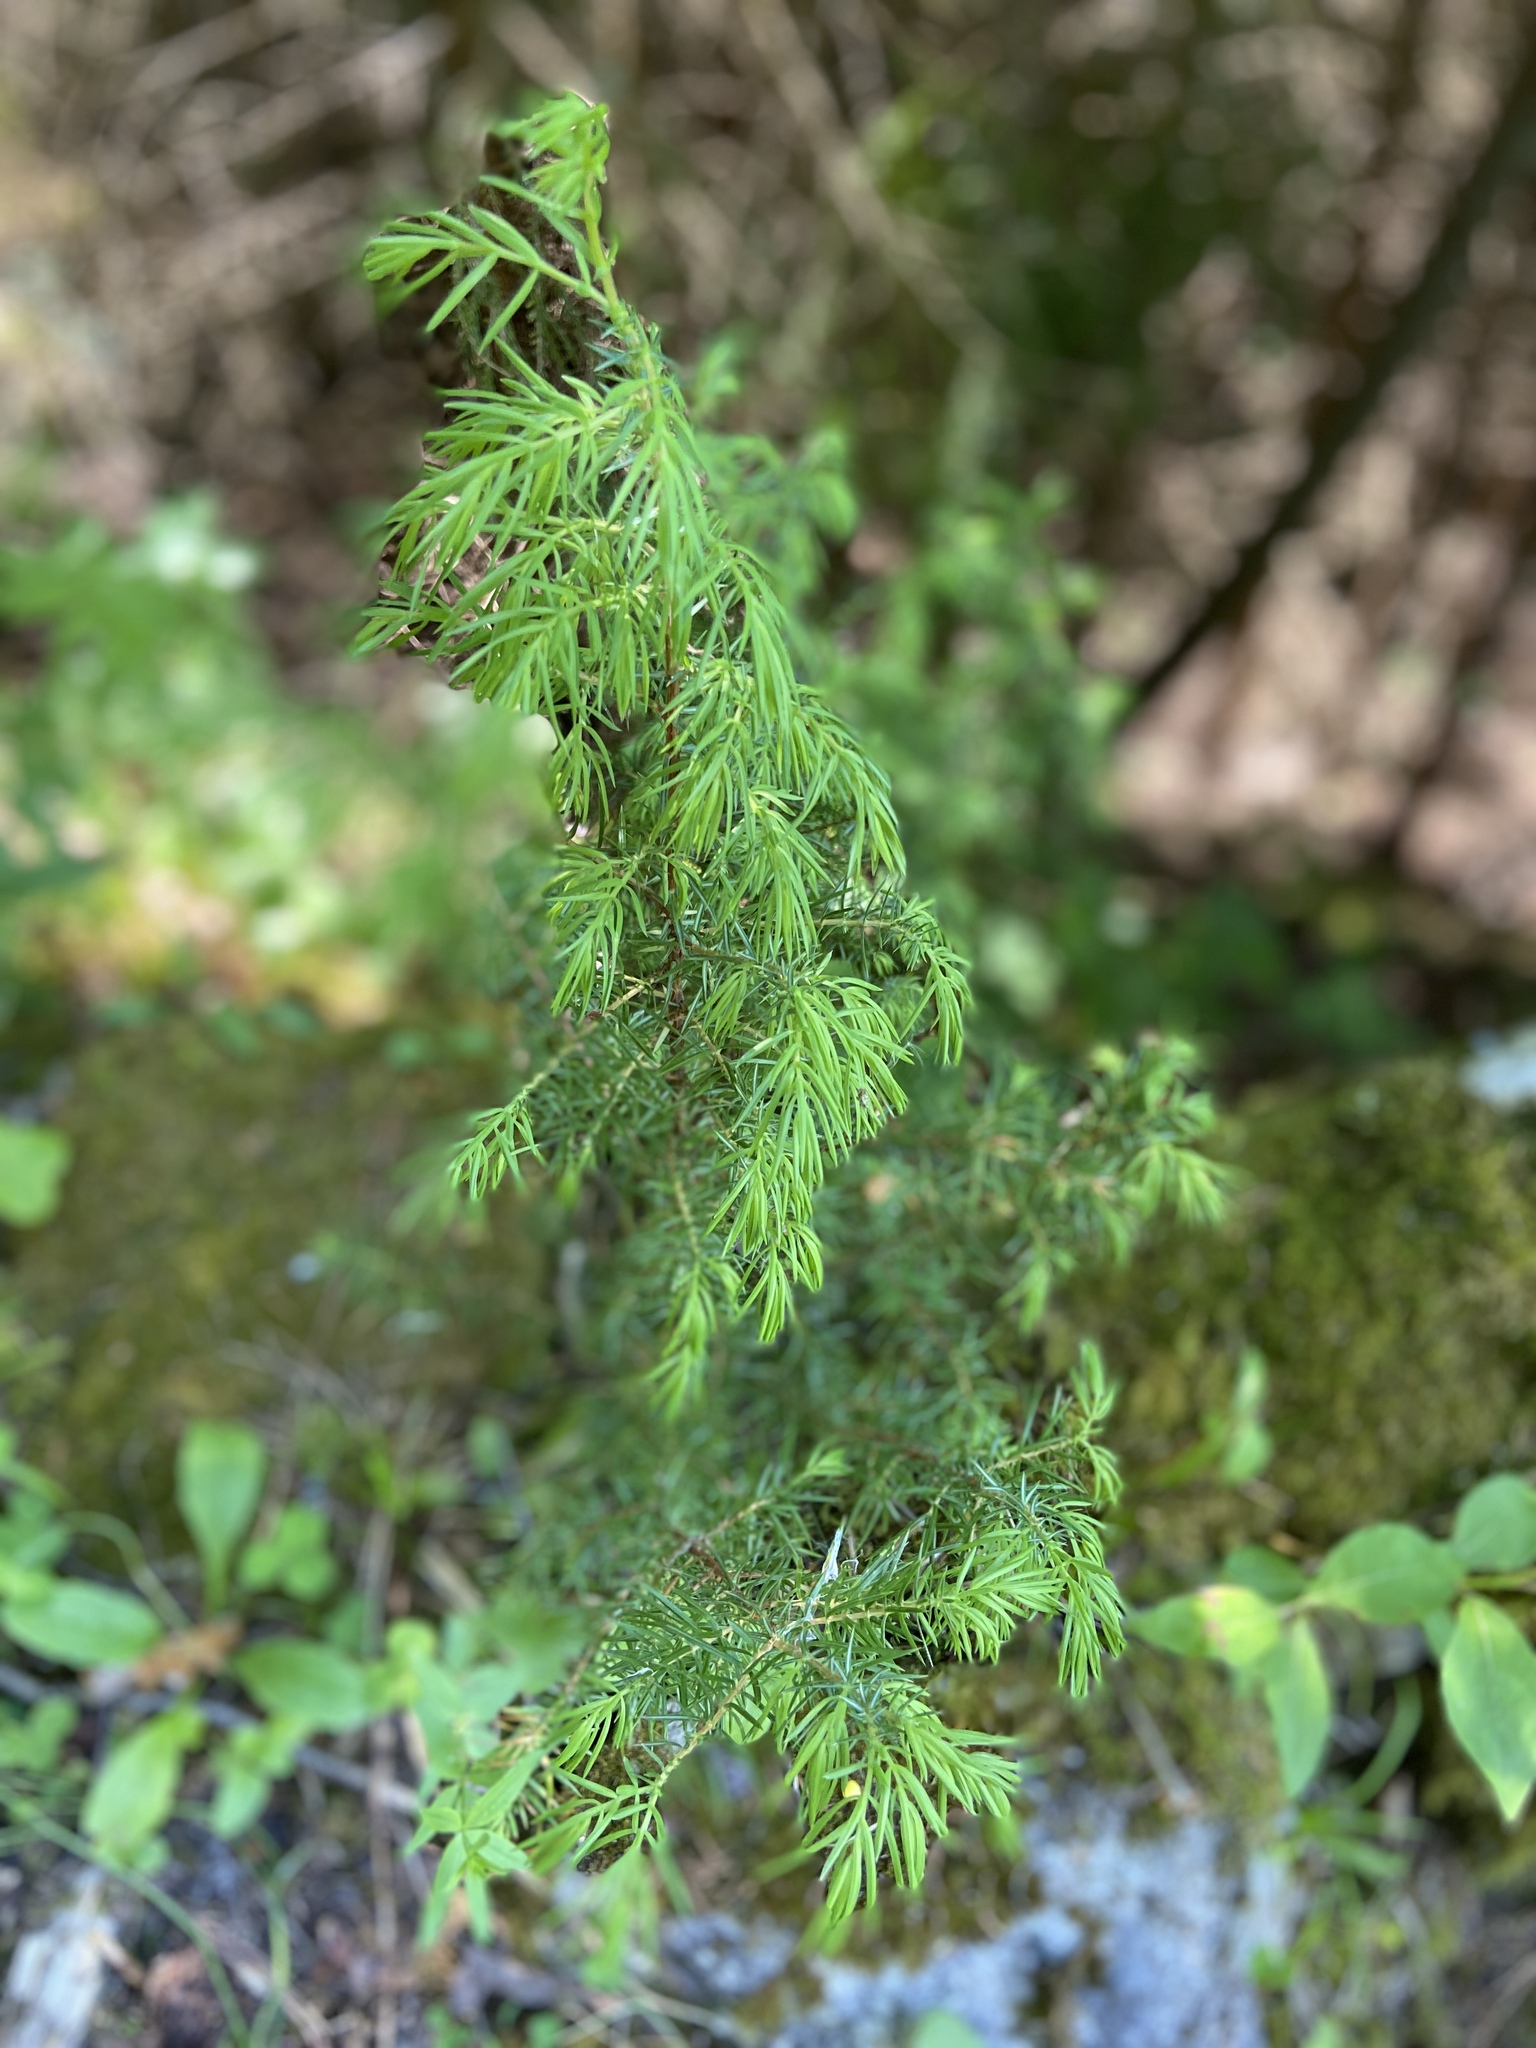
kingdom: Plantae
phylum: Tracheophyta
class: Pinopsida
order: Pinales
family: Cupressaceae
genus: Juniperus
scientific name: Juniperus communis
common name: Common juniper
